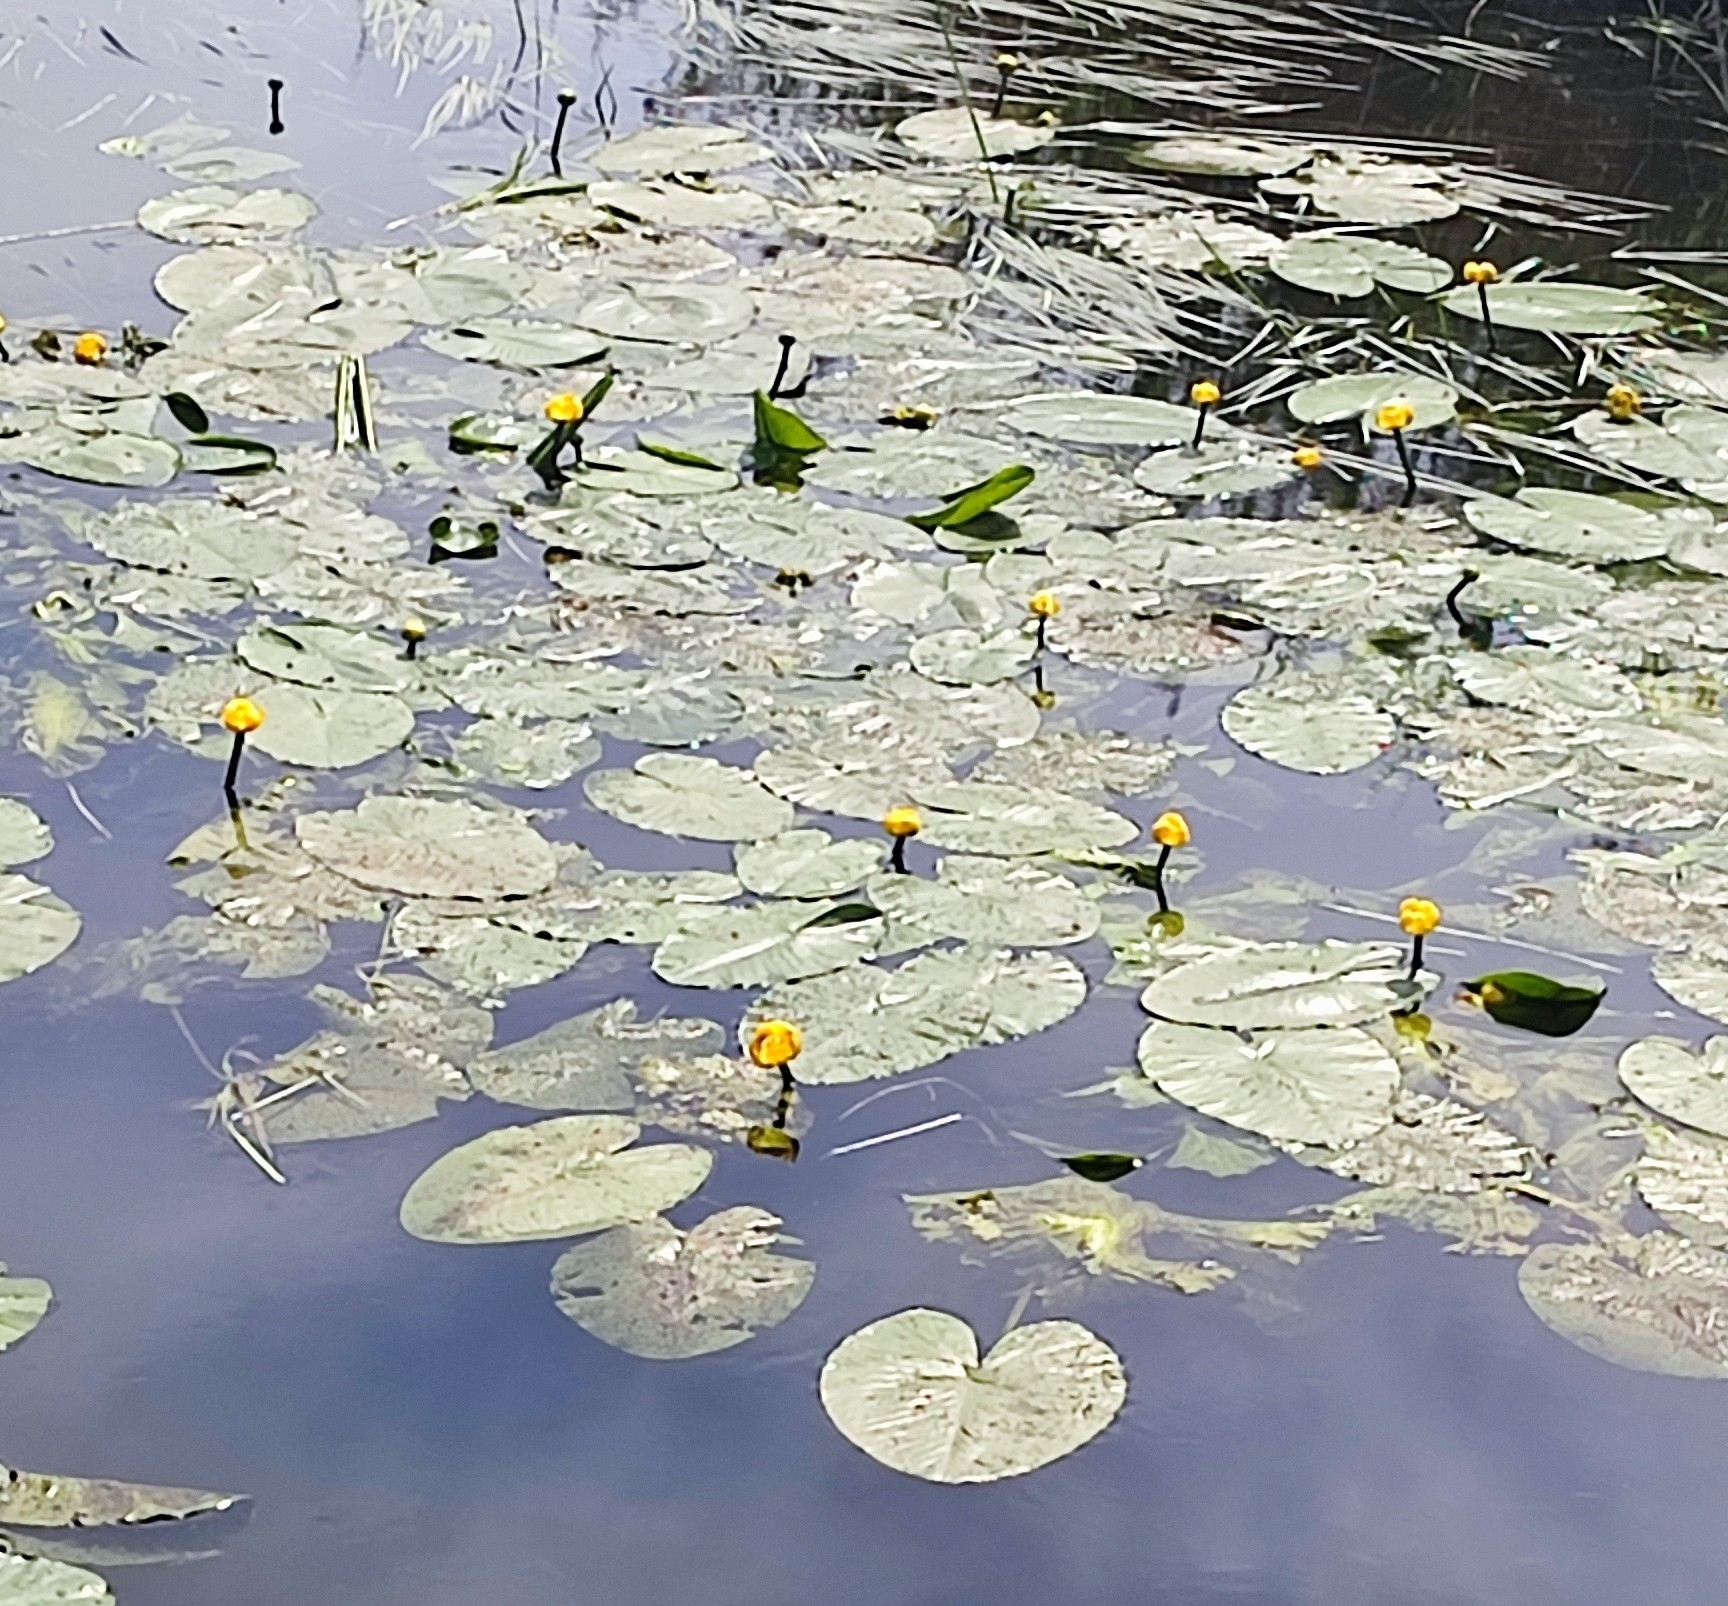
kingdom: Plantae
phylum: Tracheophyta
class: Magnoliopsida
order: Nymphaeales
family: Nymphaeaceae
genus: Nuphar
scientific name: Nuphar lutea
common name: Yellow water-lily
